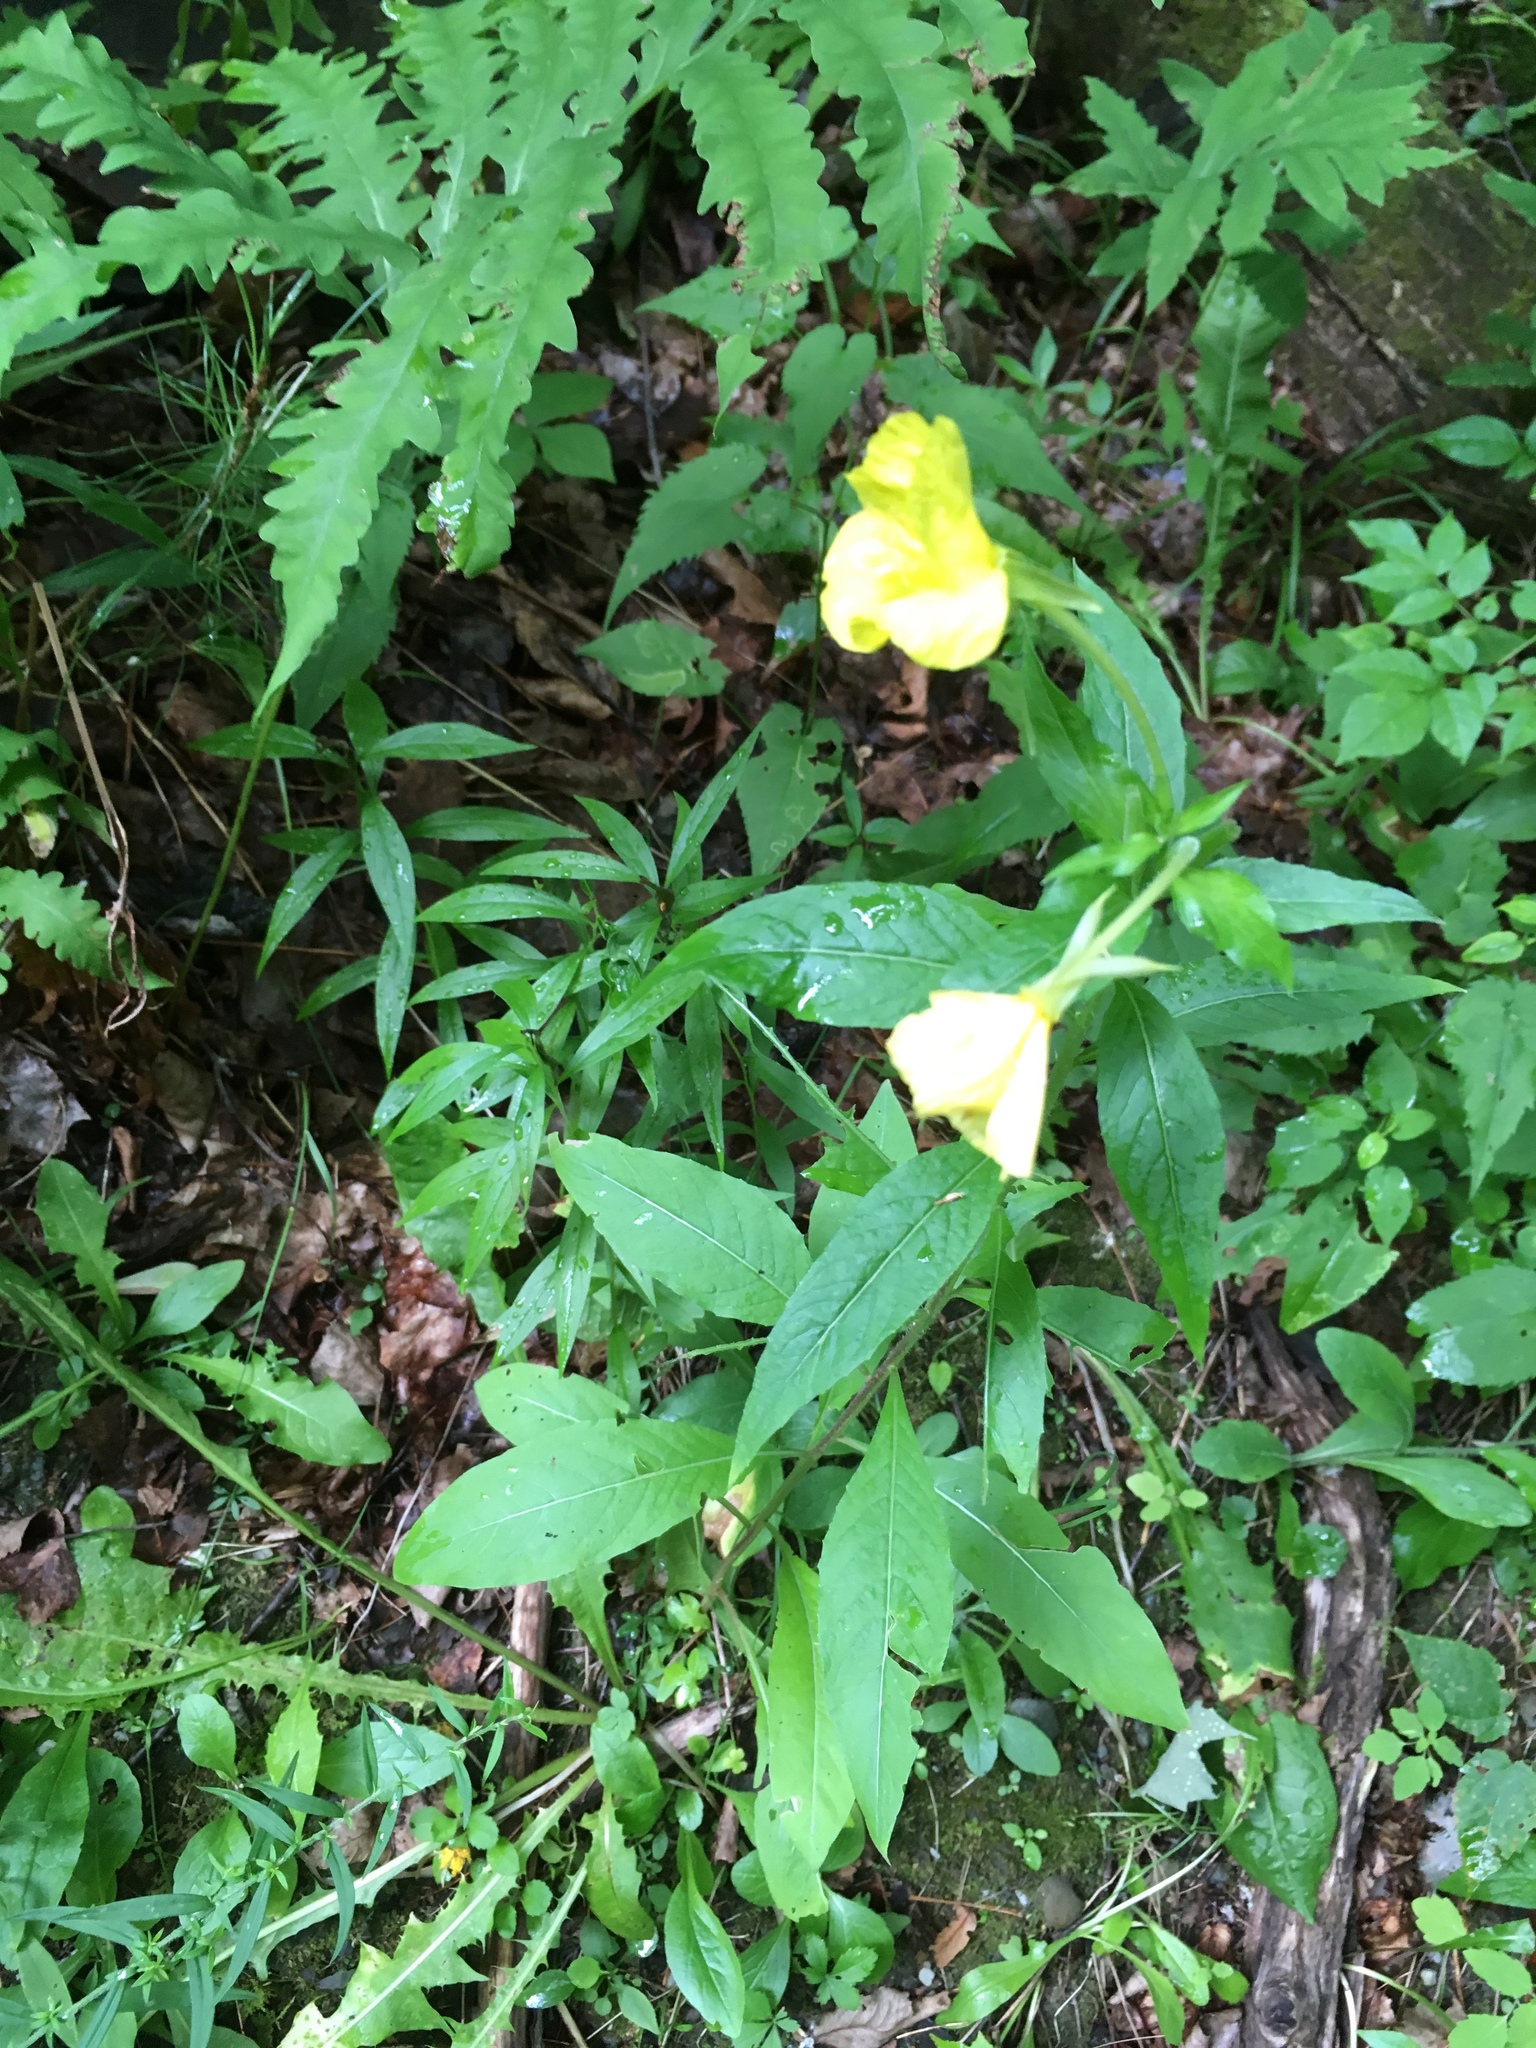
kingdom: Plantae
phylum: Tracheophyta
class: Magnoliopsida
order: Myrtales
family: Onagraceae
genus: Oenothera
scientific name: Oenothera biennis
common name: Common evening-primrose
